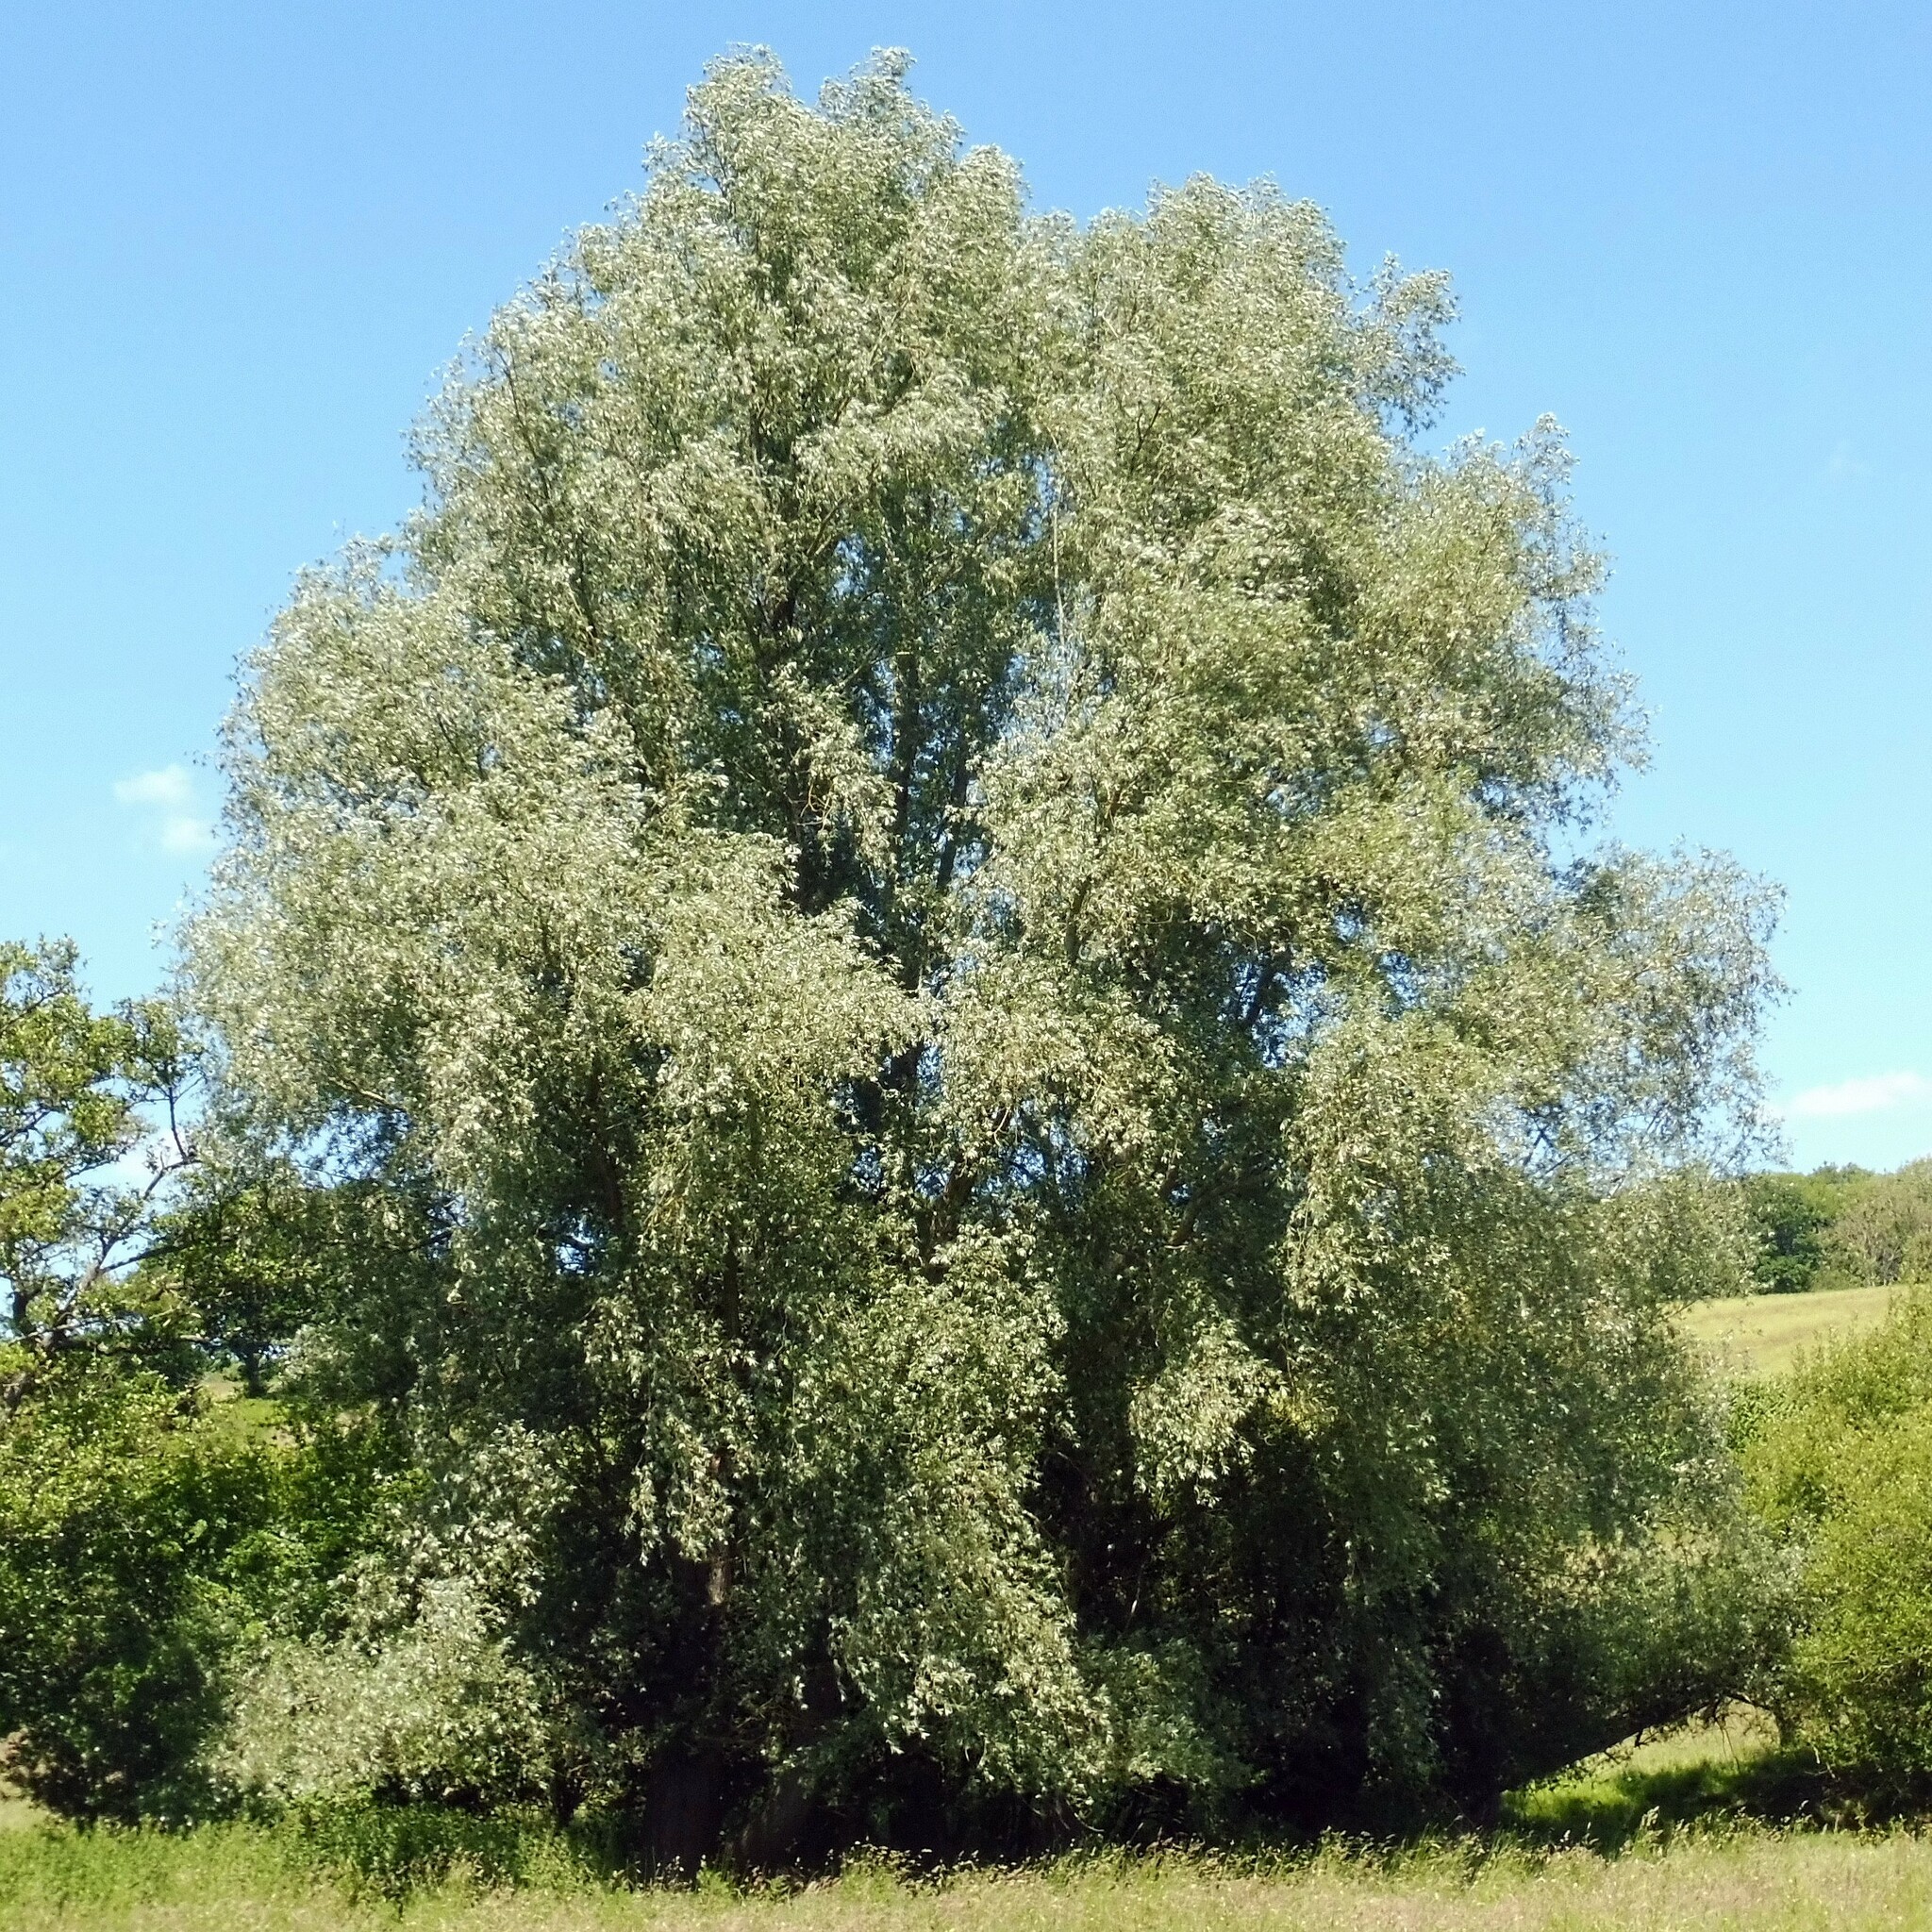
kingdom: Plantae
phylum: Tracheophyta
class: Magnoliopsida
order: Malpighiales
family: Salicaceae
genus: Salix
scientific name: Salix alba
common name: White willow
